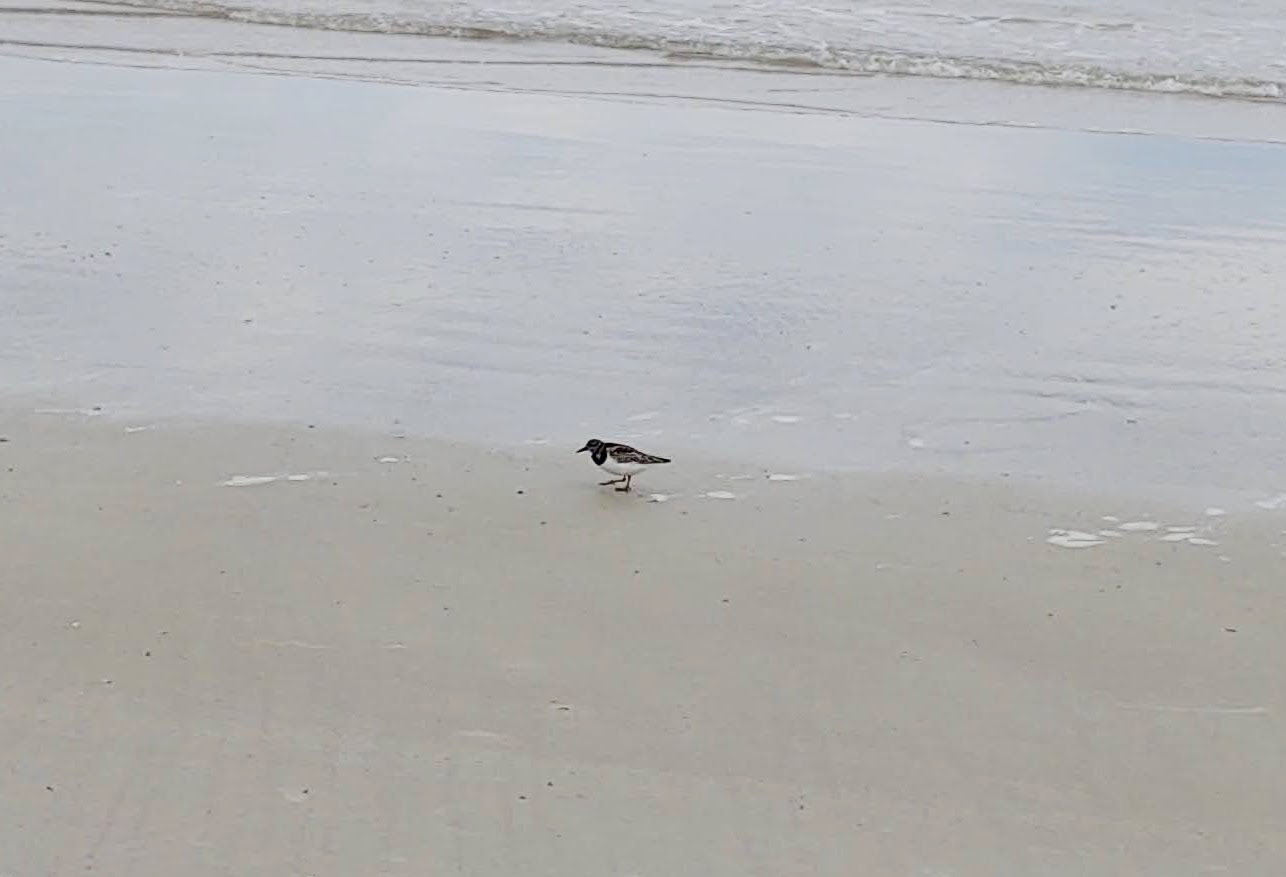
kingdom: Animalia
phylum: Chordata
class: Aves
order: Charadriiformes
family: Scolopacidae
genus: Arenaria
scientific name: Arenaria interpres
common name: Ruddy turnstone
